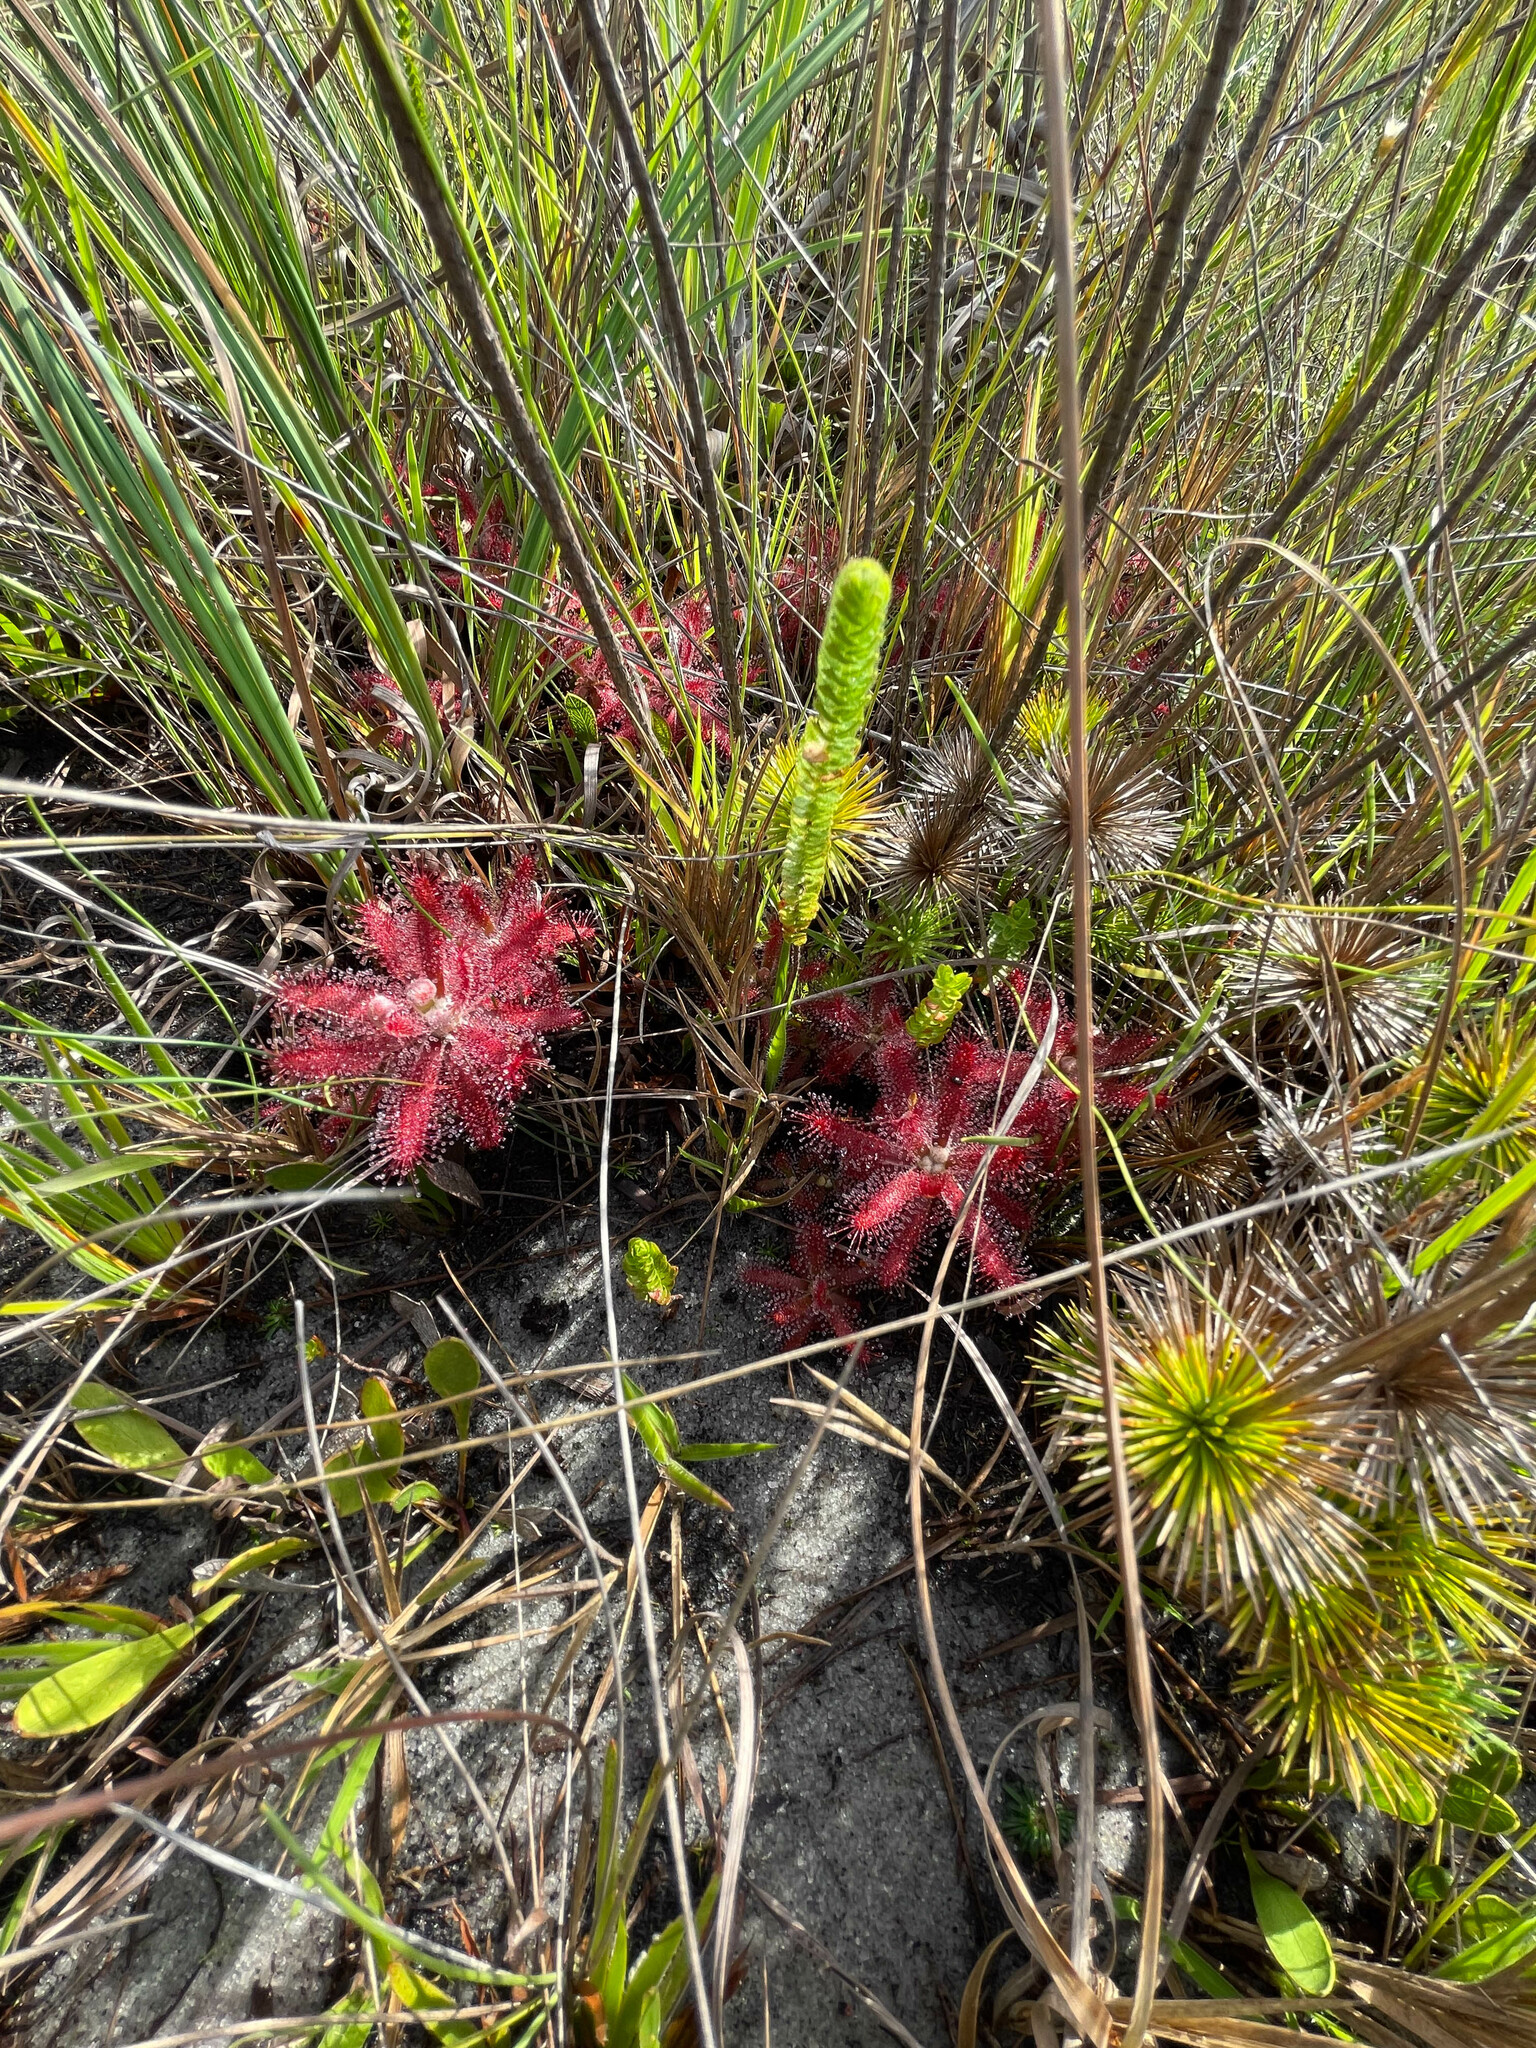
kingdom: Plantae
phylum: Tracheophyta
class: Magnoliopsida
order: Caryophyllales
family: Droseraceae
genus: Drosera
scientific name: Drosera graomogolensis
